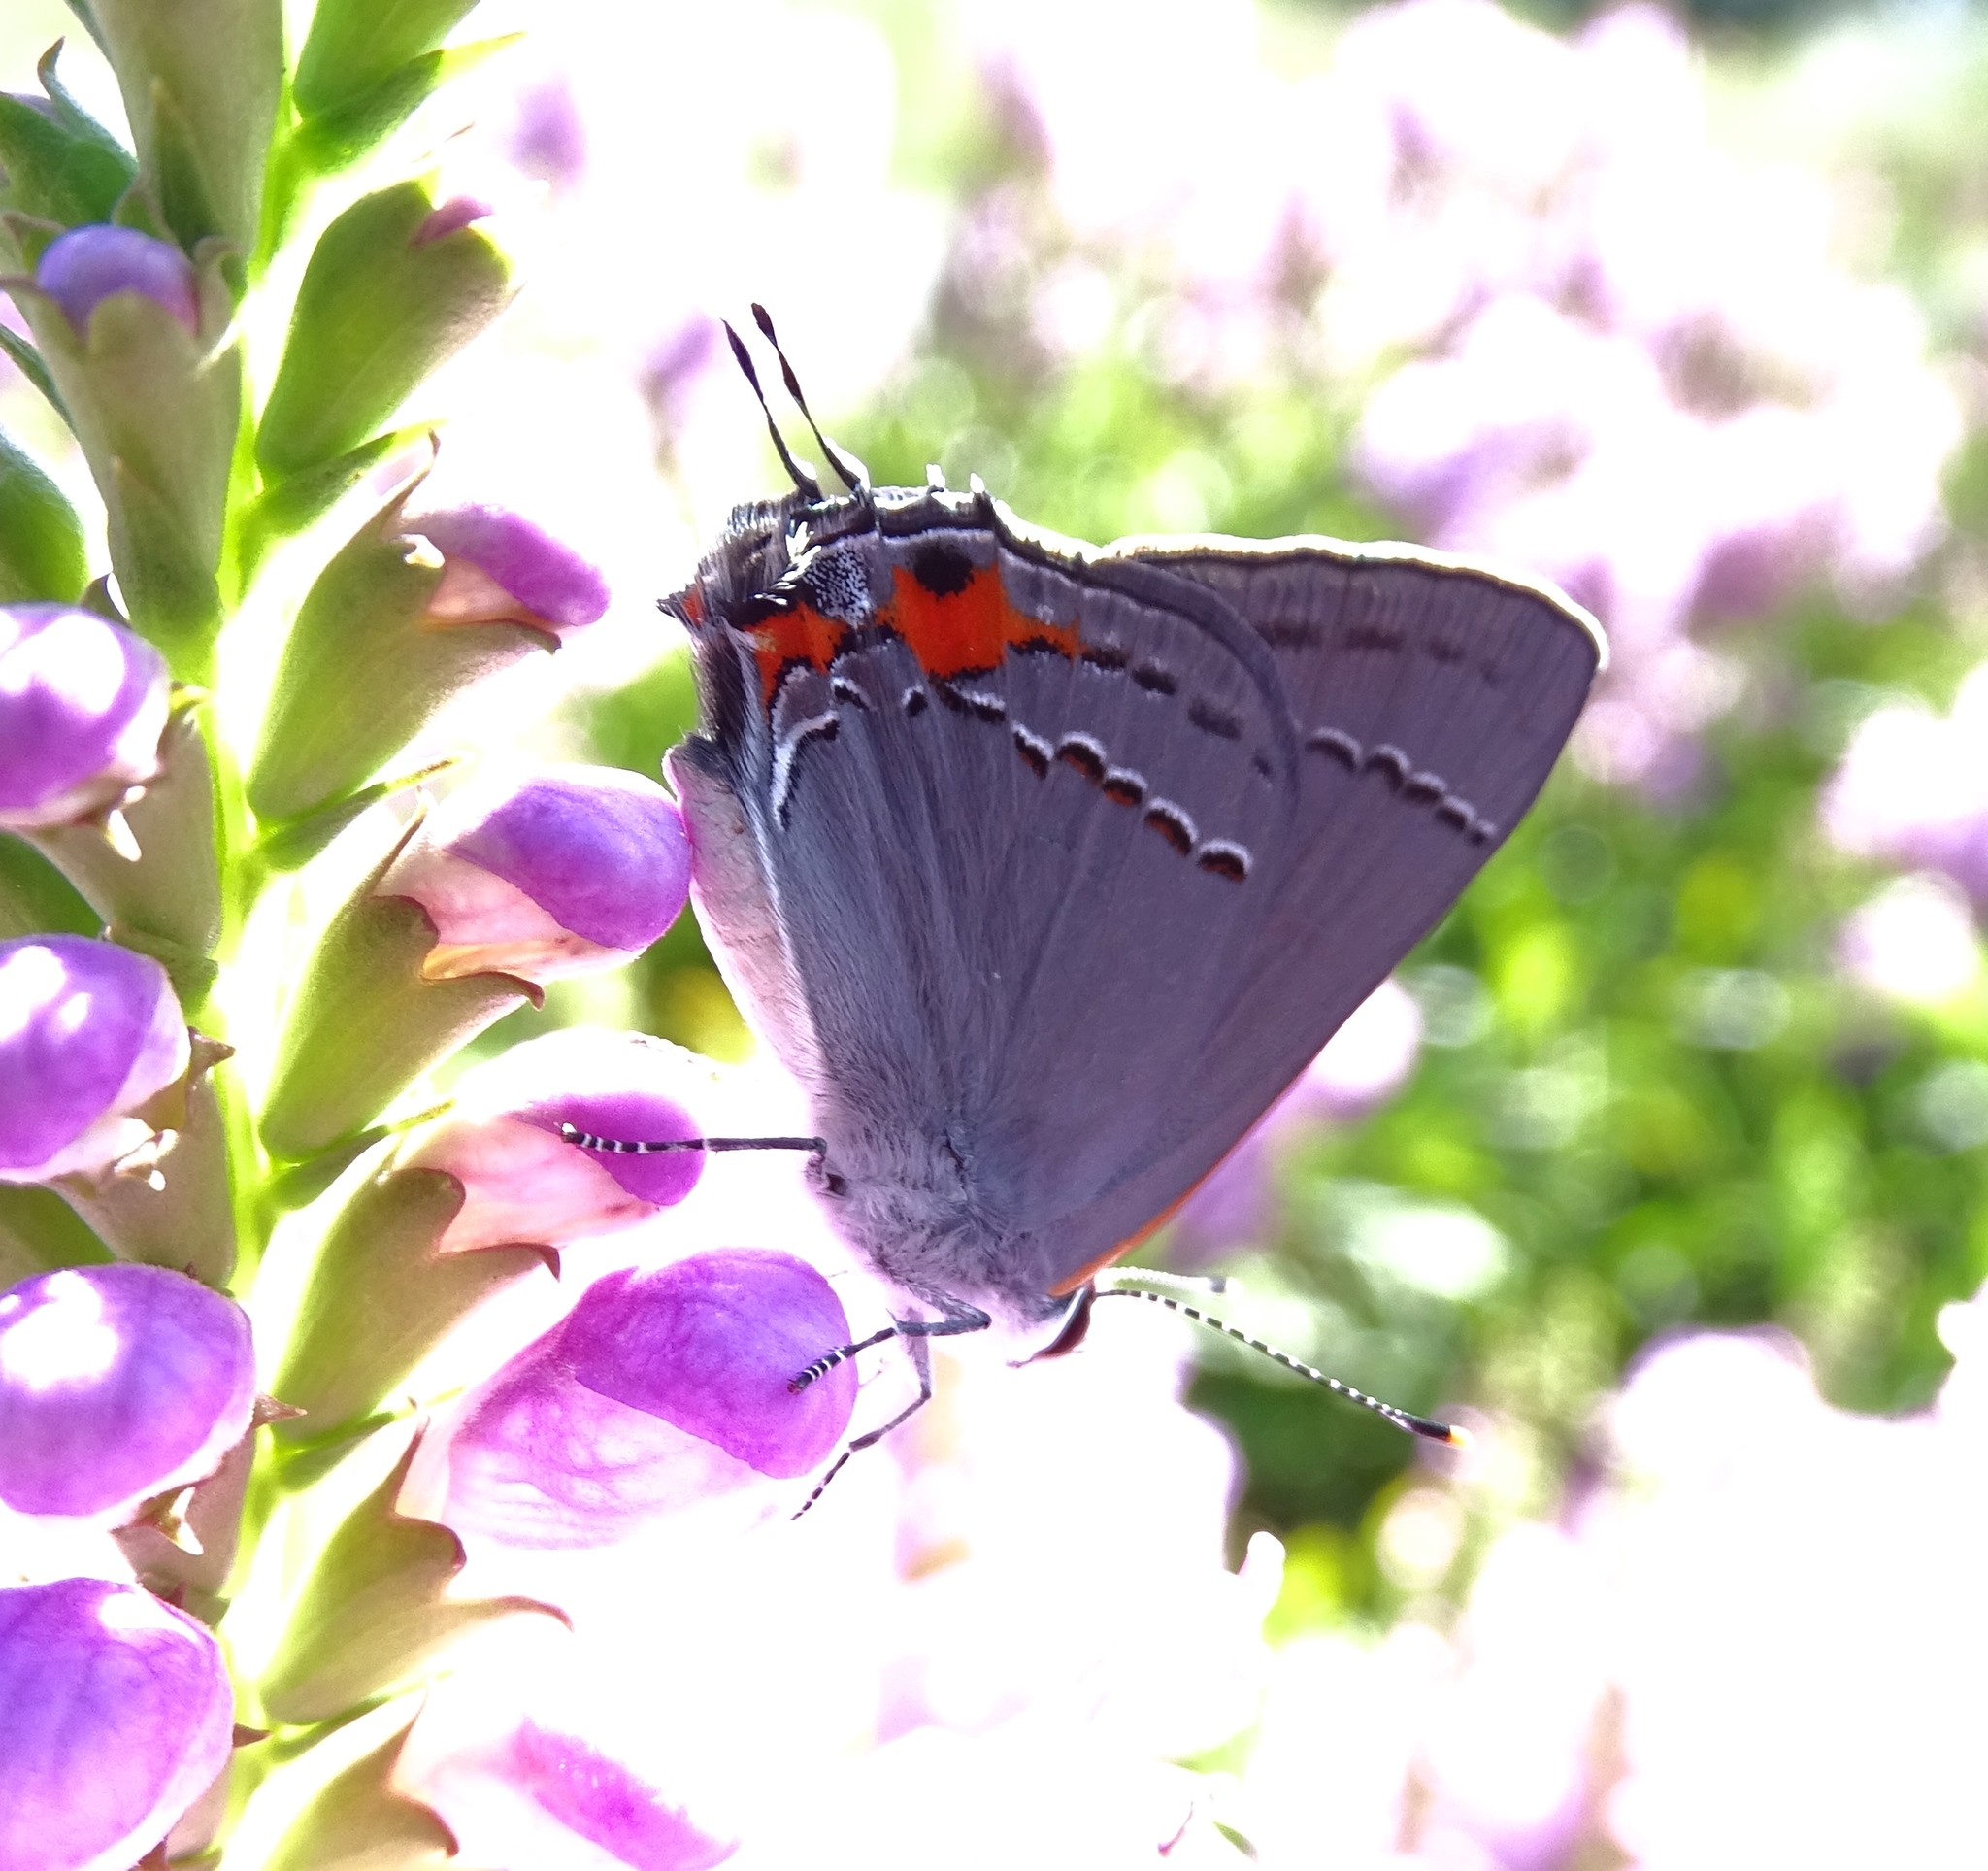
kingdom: Animalia
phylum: Arthropoda
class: Insecta
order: Lepidoptera
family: Lycaenidae
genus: Strymon
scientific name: Strymon melinus
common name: Gray hairstreak
